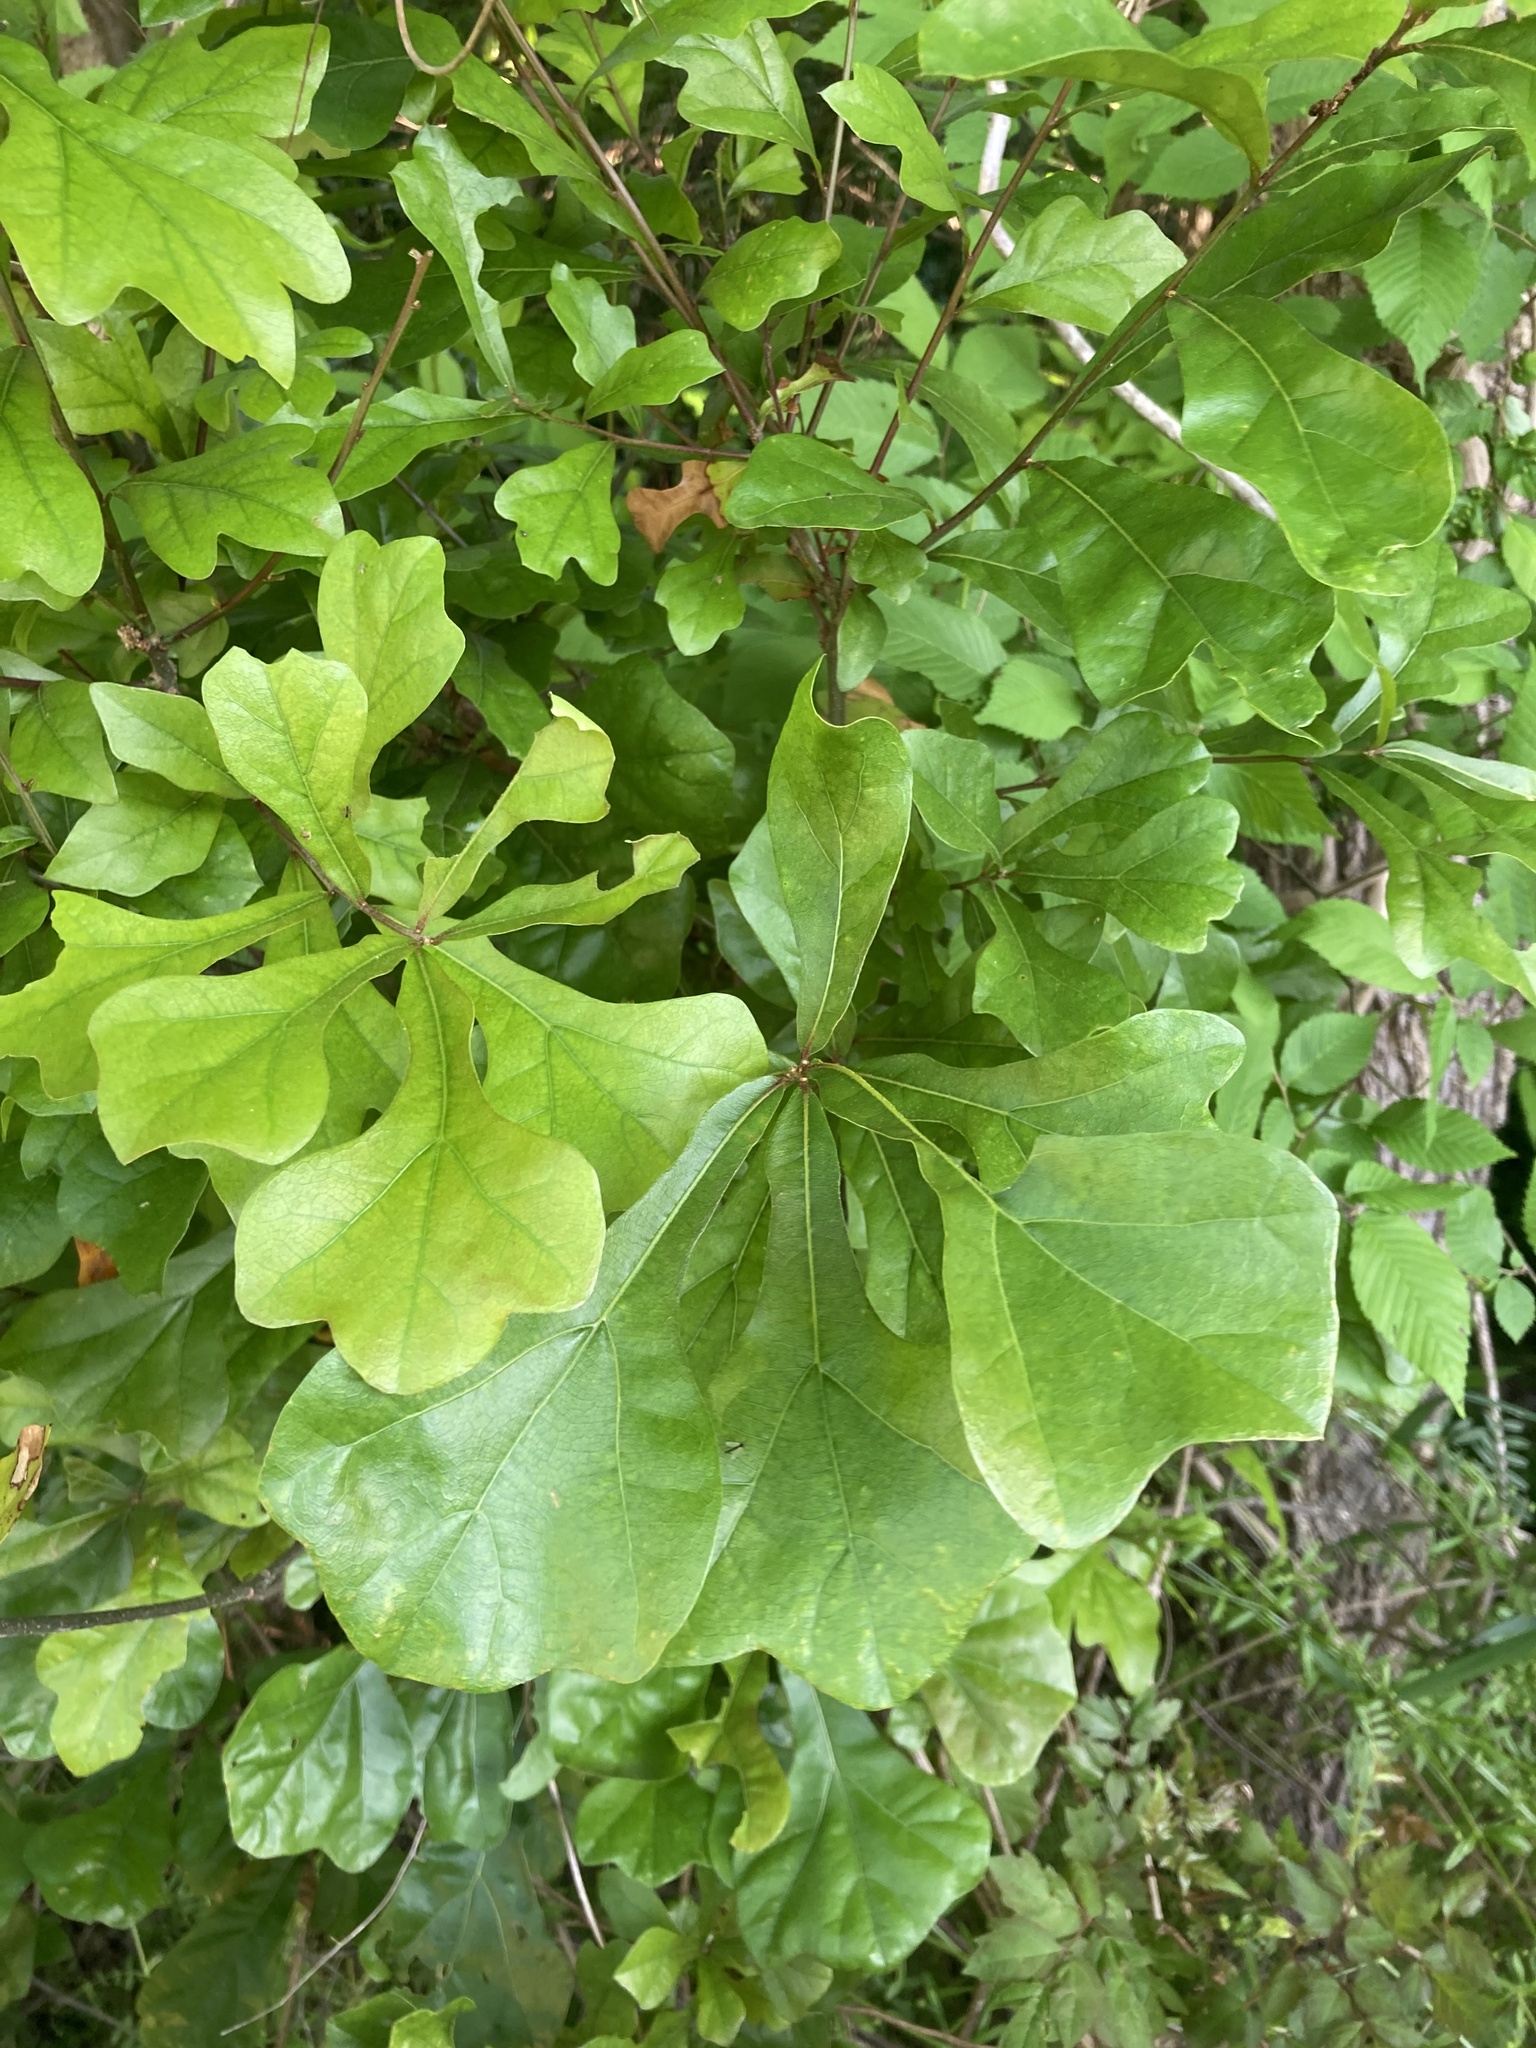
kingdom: Plantae
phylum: Tracheophyta
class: Magnoliopsida
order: Fagales
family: Fagaceae
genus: Quercus
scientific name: Quercus nigra
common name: Water oak
